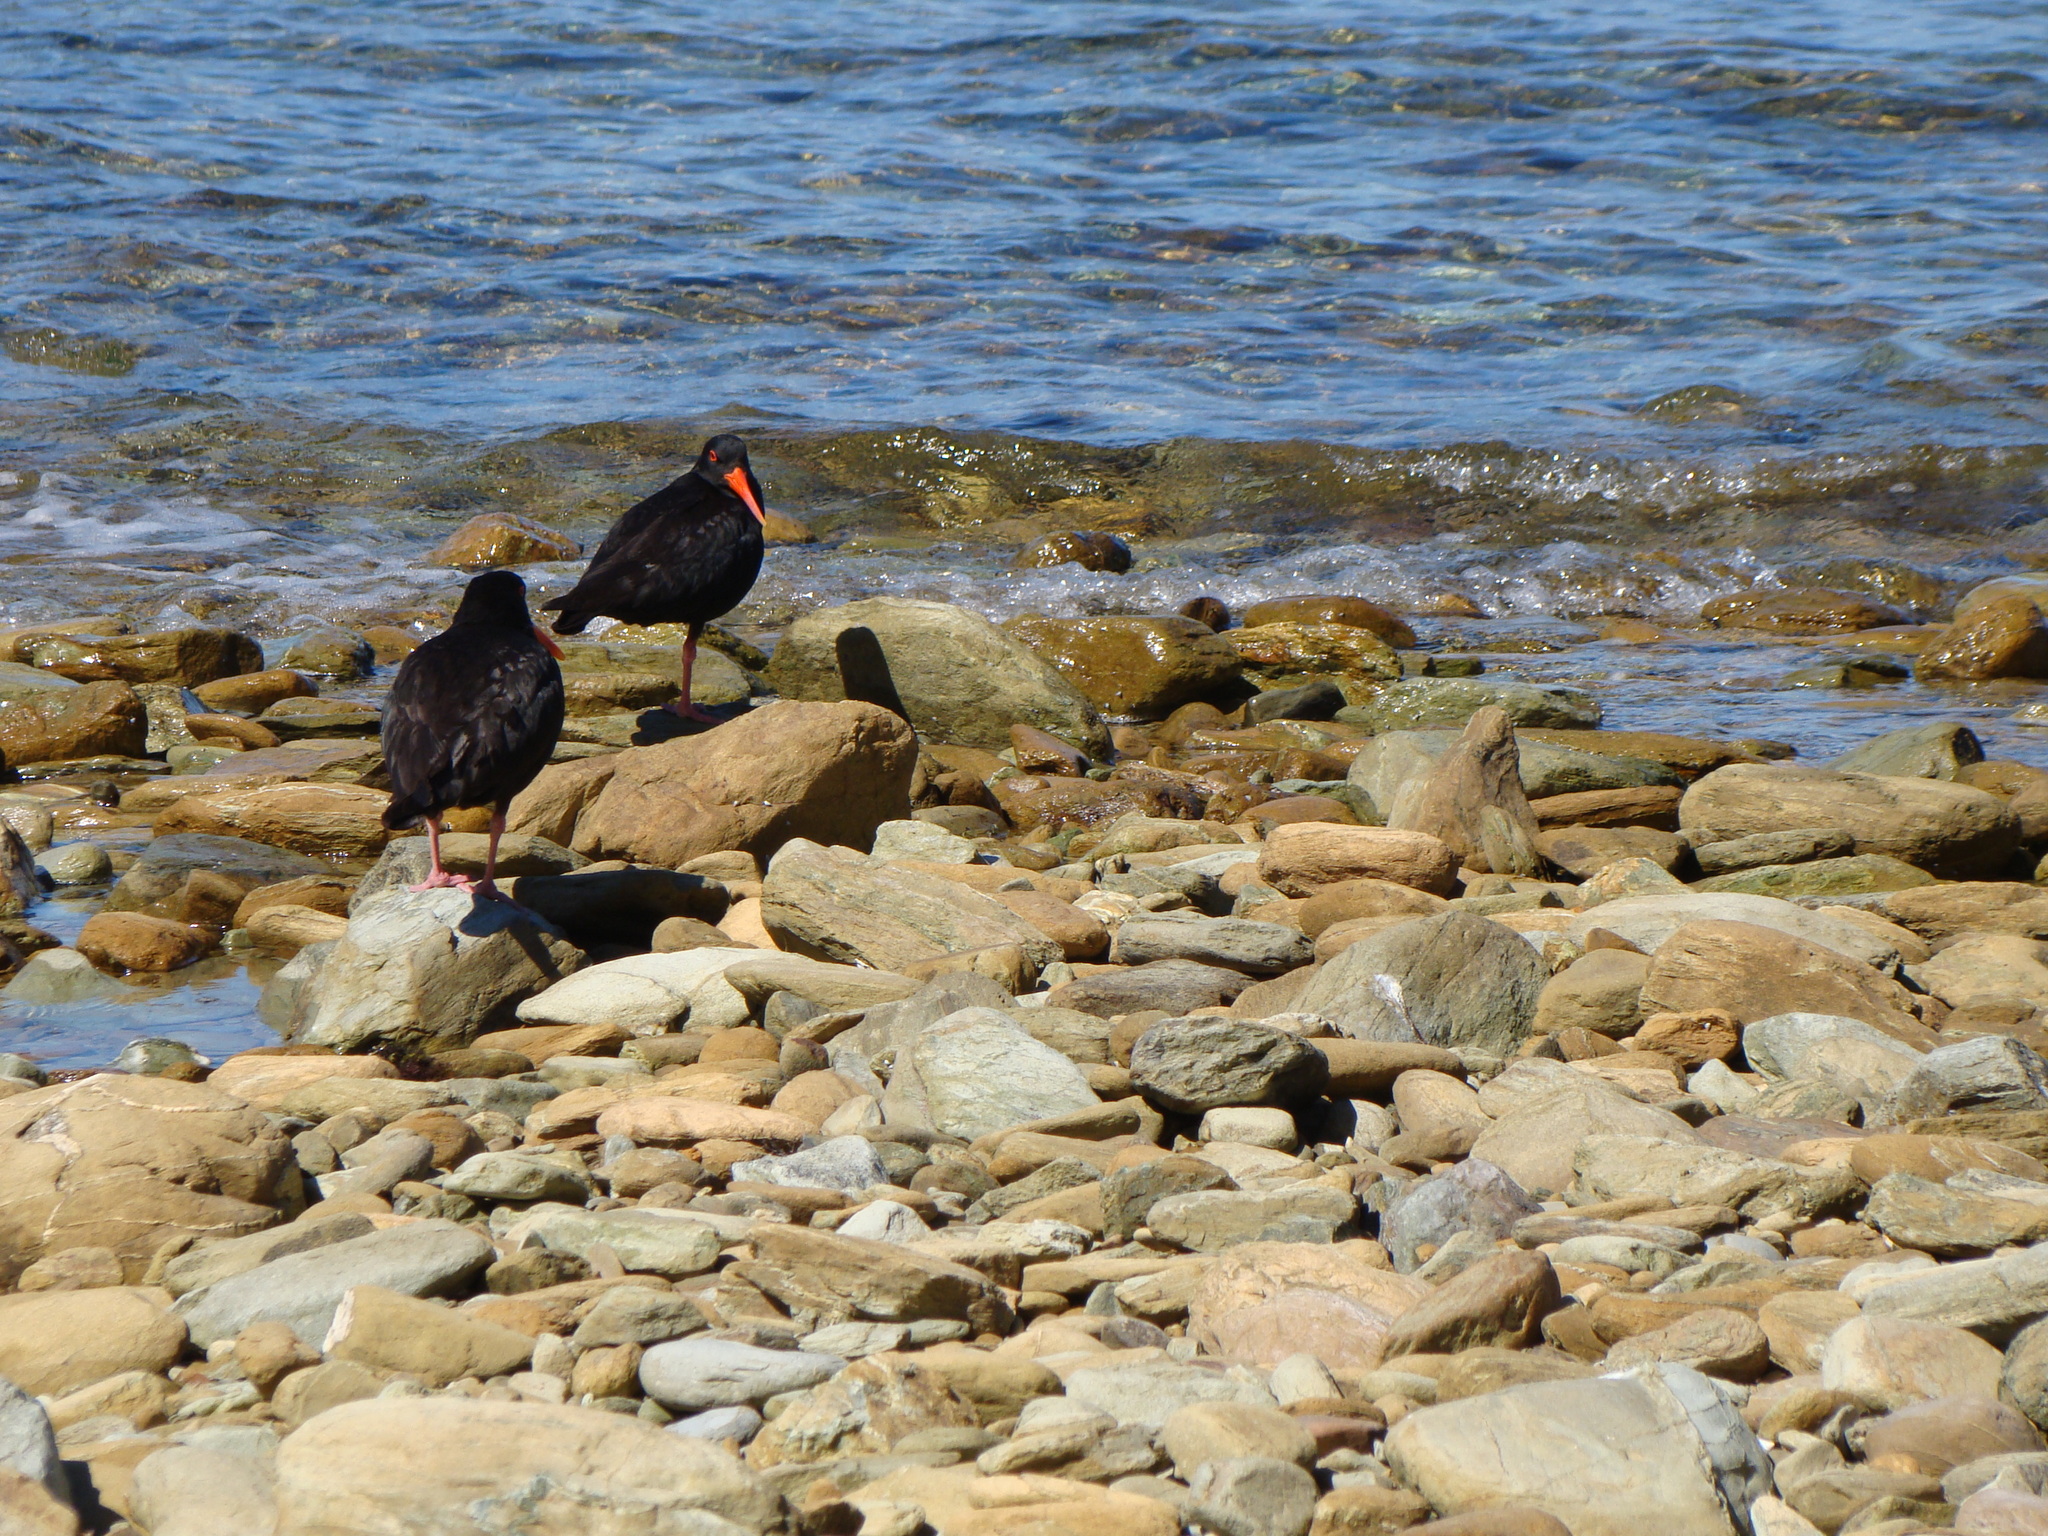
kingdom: Animalia
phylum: Chordata
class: Aves
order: Charadriiformes
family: Haematopodidae
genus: Haematopus
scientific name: Haematopus unicolor
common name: Variable oystercatcher
